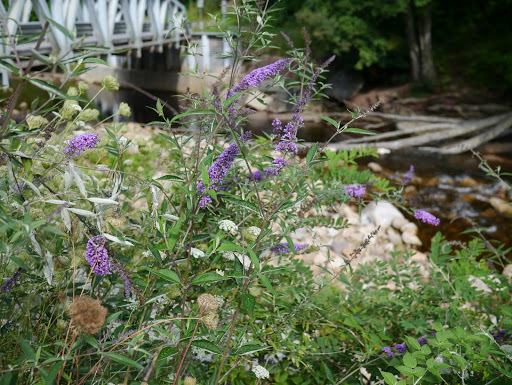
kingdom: Plantae
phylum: Tracheophyta
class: Magnoliopsida
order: Lamiales
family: Scrophulariaceae
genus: Buddleja
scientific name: Buddleja davidii
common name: Butterfly-bush
